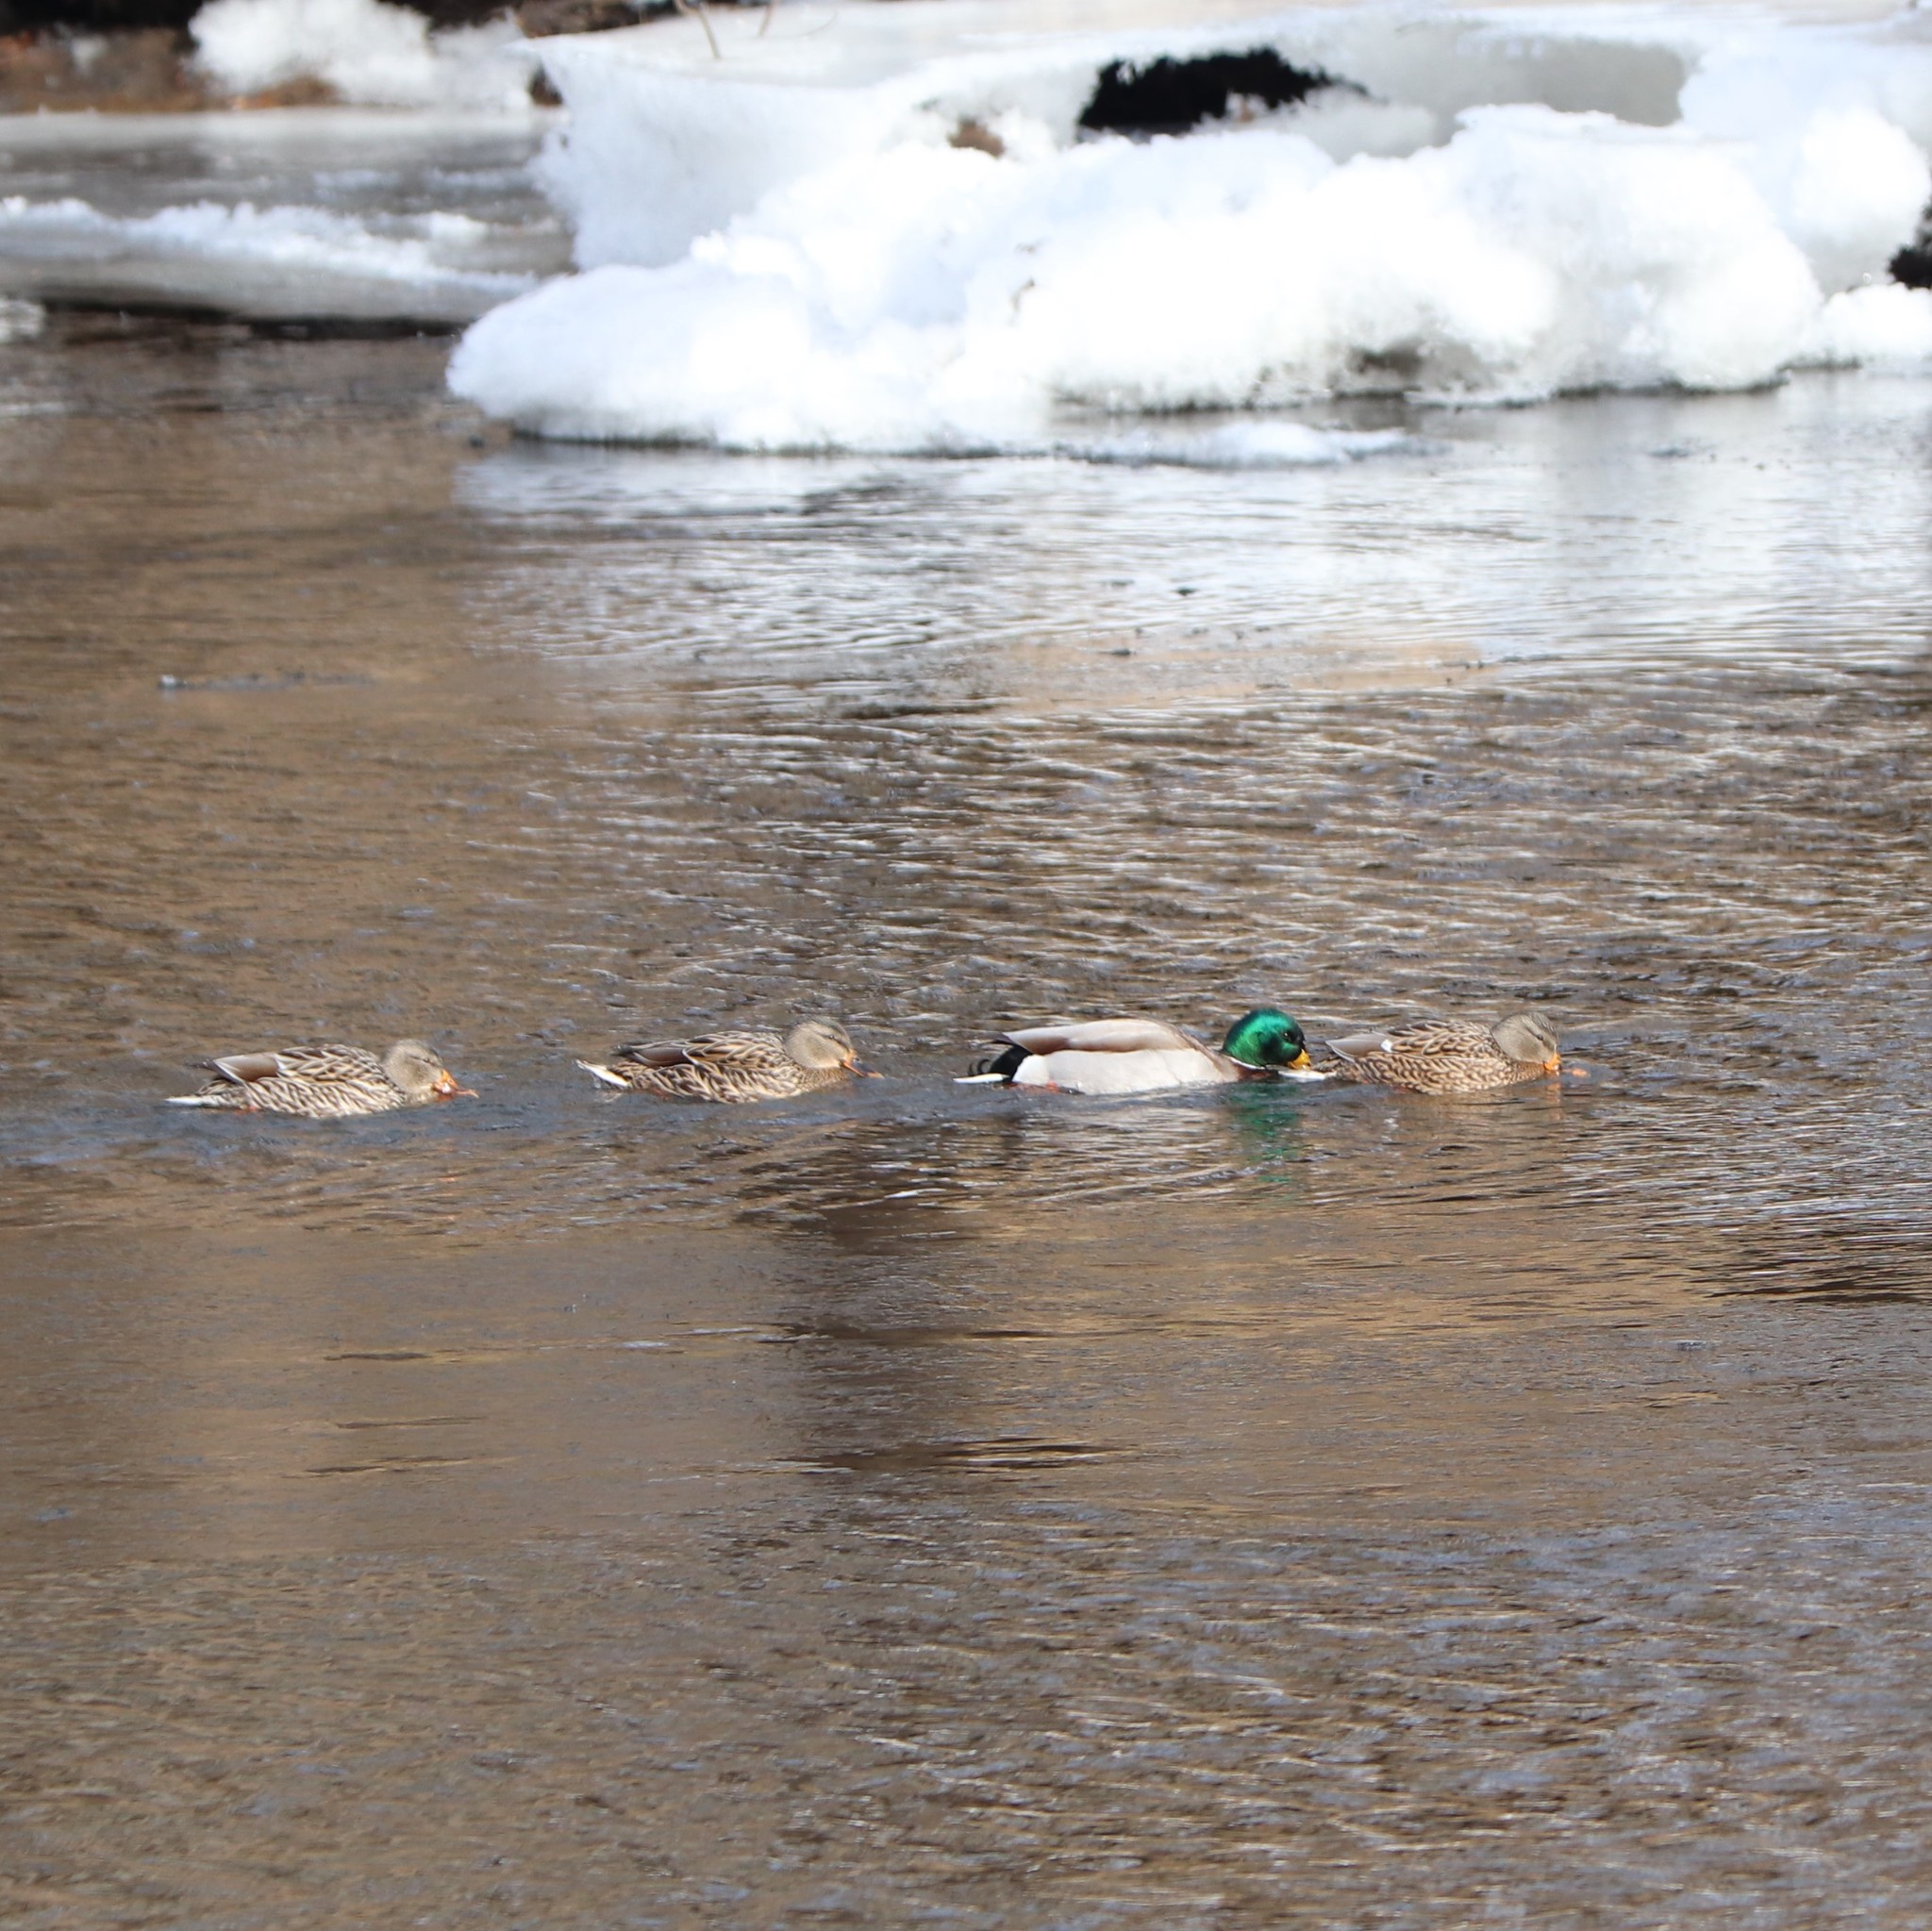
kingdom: Animalia
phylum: Chordata
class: Aves
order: Anseriformes
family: Anatidae
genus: Anas
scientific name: Anas platyrhynchos
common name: Mallard
